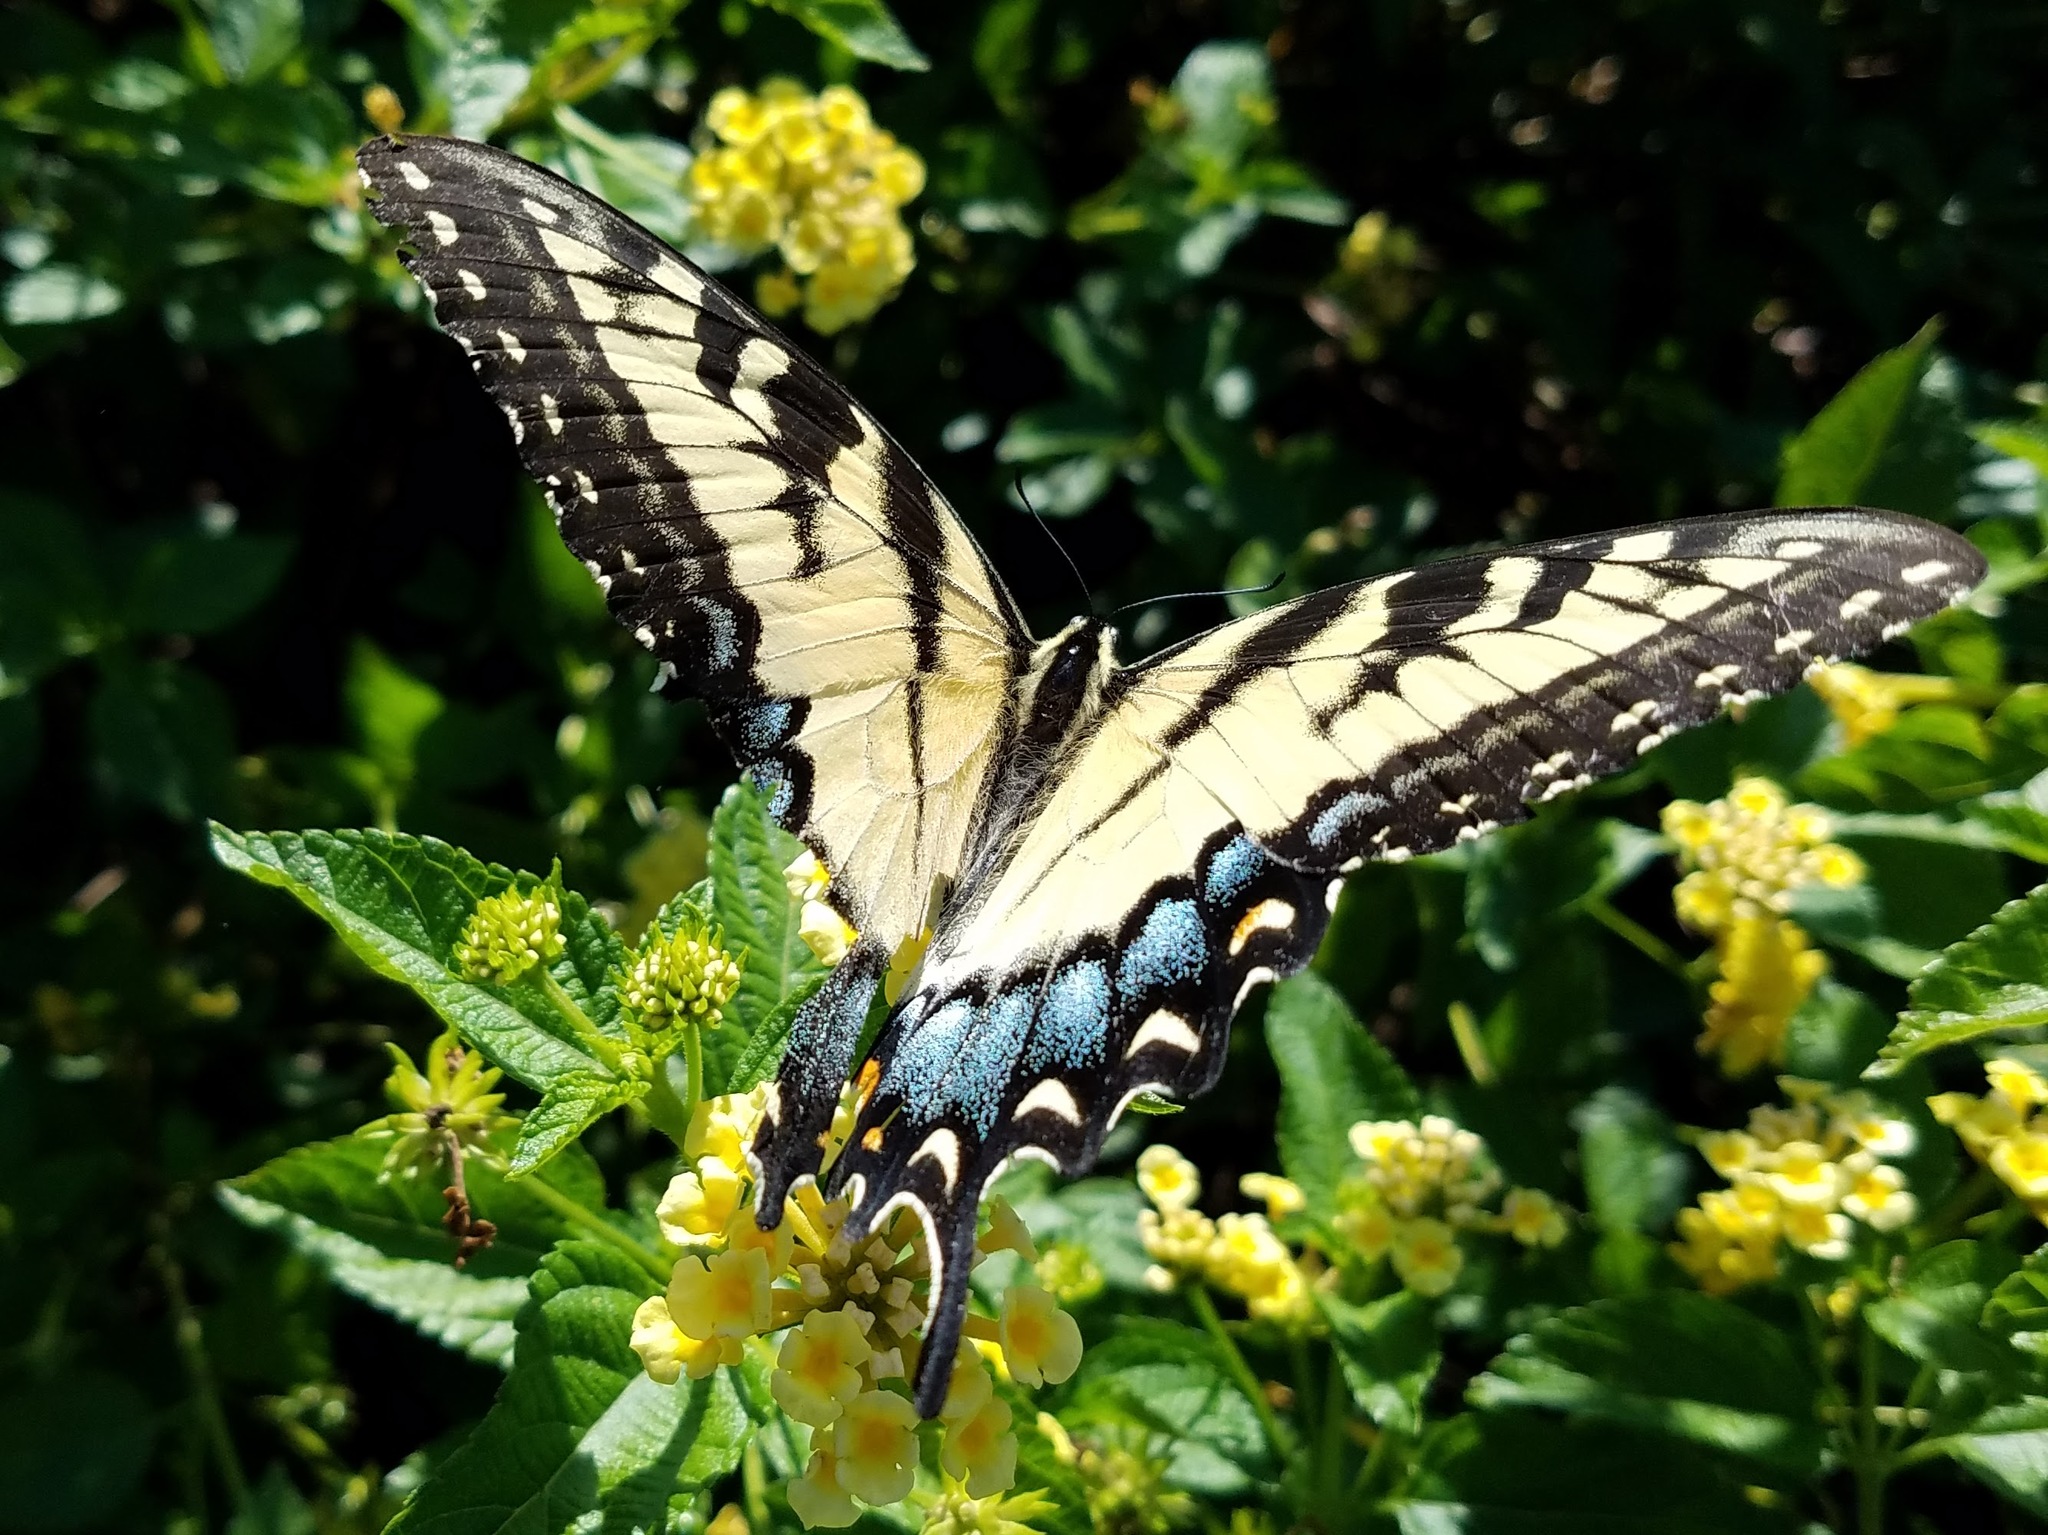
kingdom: Animalia
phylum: Arthropoda
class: Insecta
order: Lepidoptera
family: Papilionidae
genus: Papilio
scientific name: Papilio glaucus
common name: Tiger swallowtail
